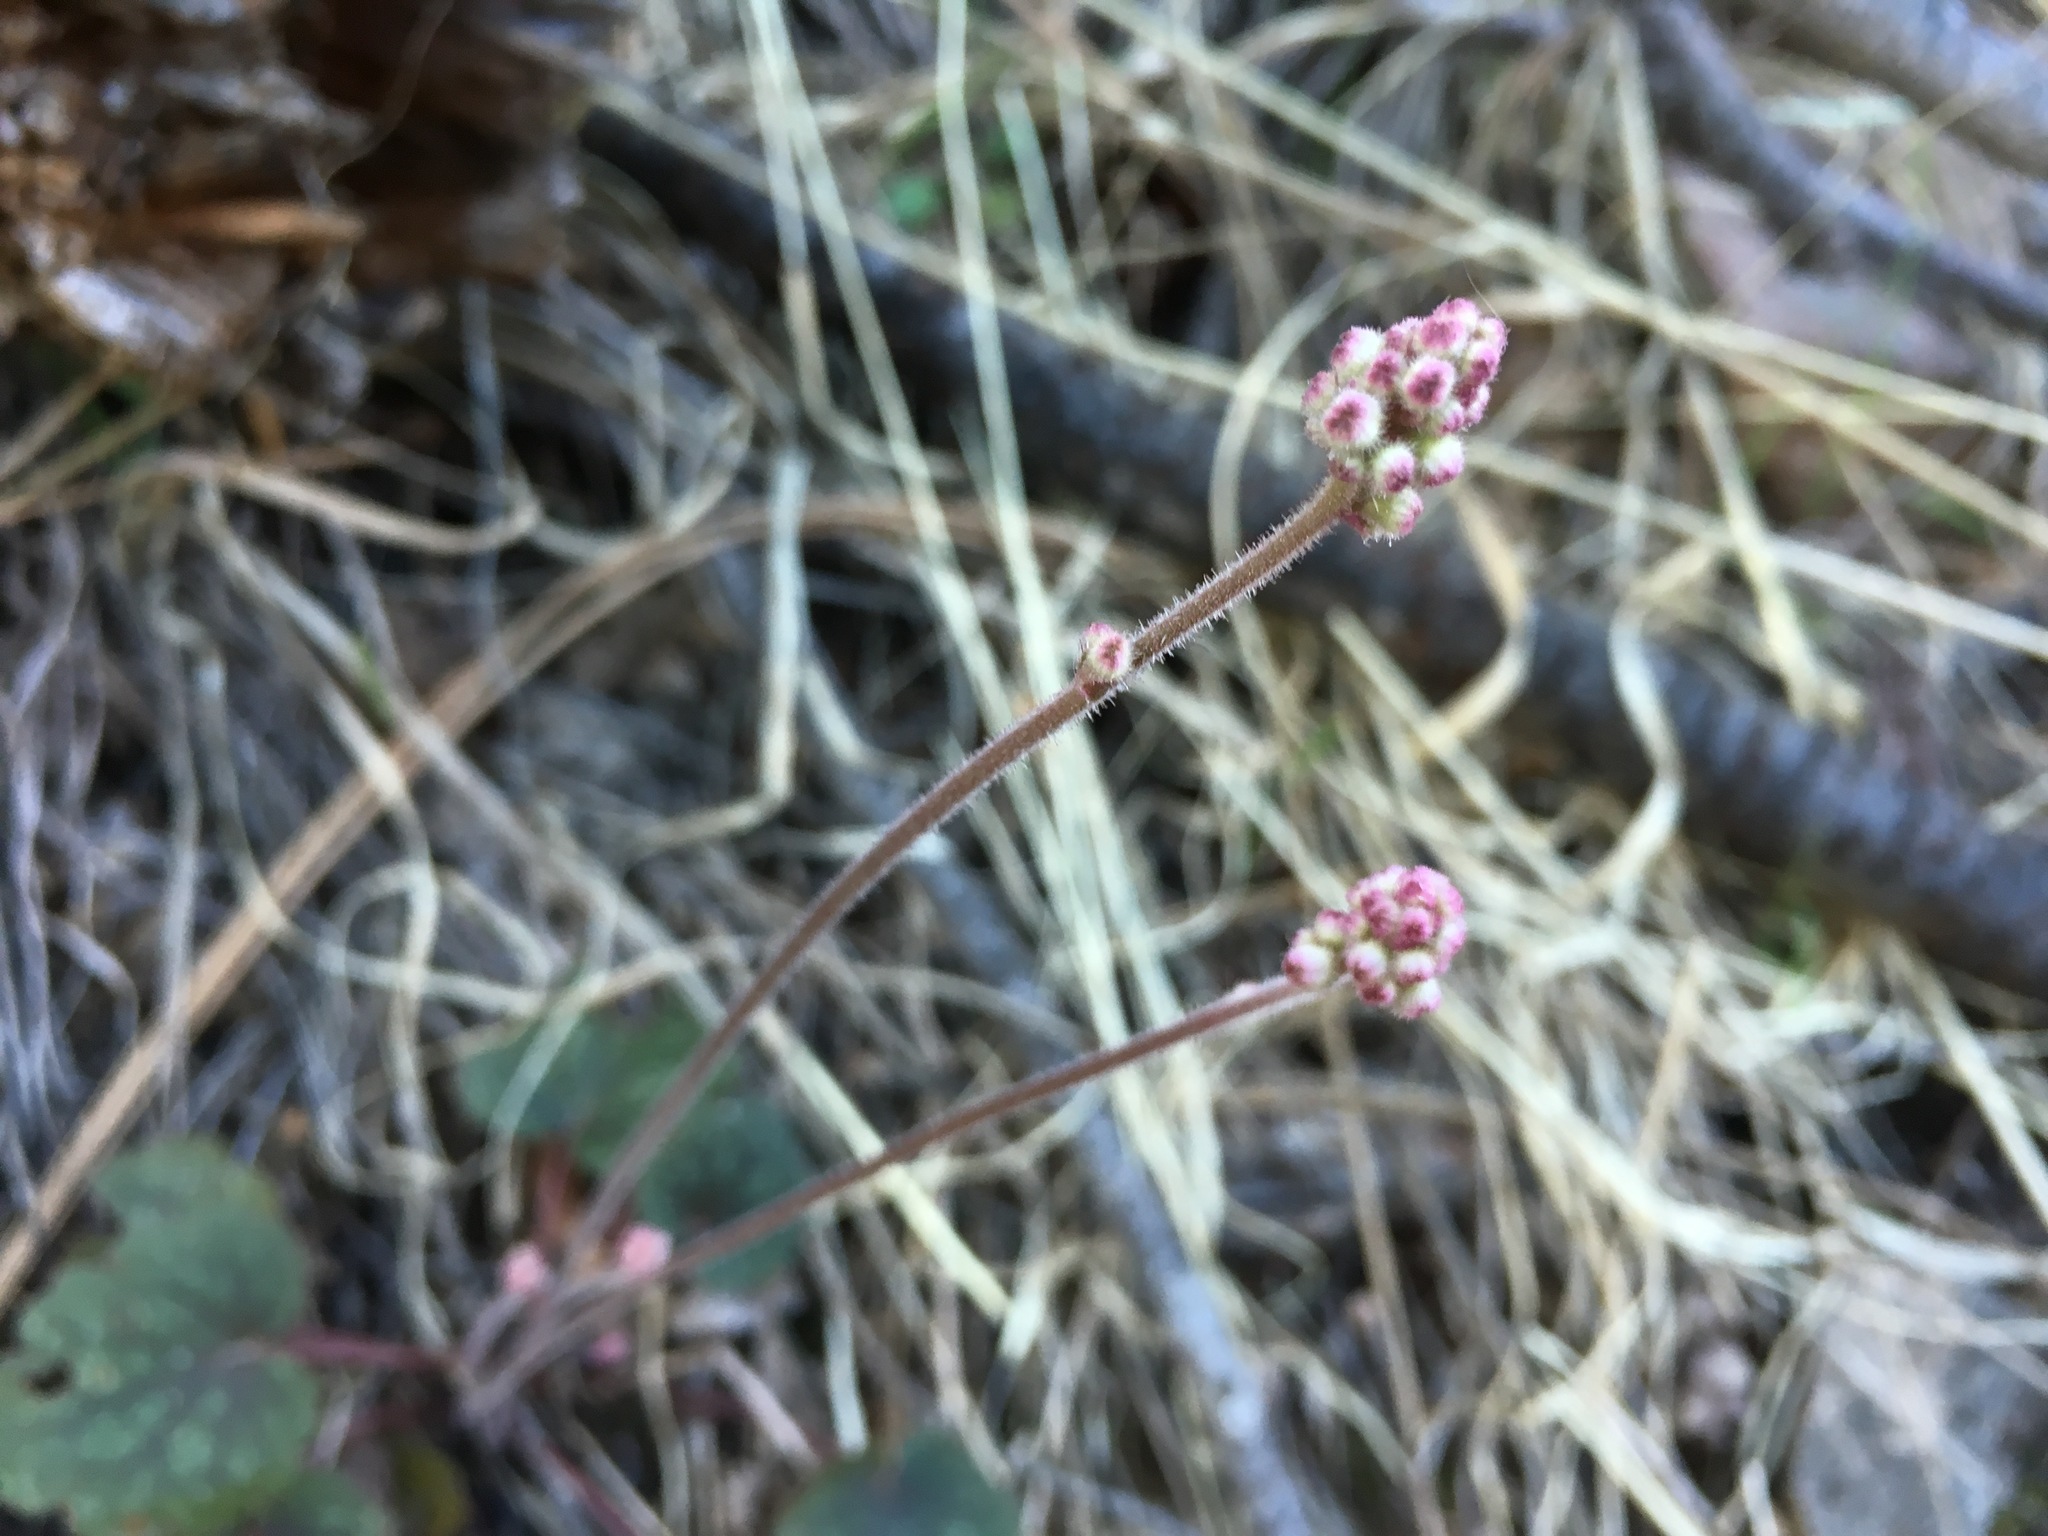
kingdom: Plantae
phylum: Tracheophyta
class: Magnoliopsida
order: Saxifragales
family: Saxifragaceae
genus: Heuchera
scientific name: Heuchera glomerulata
